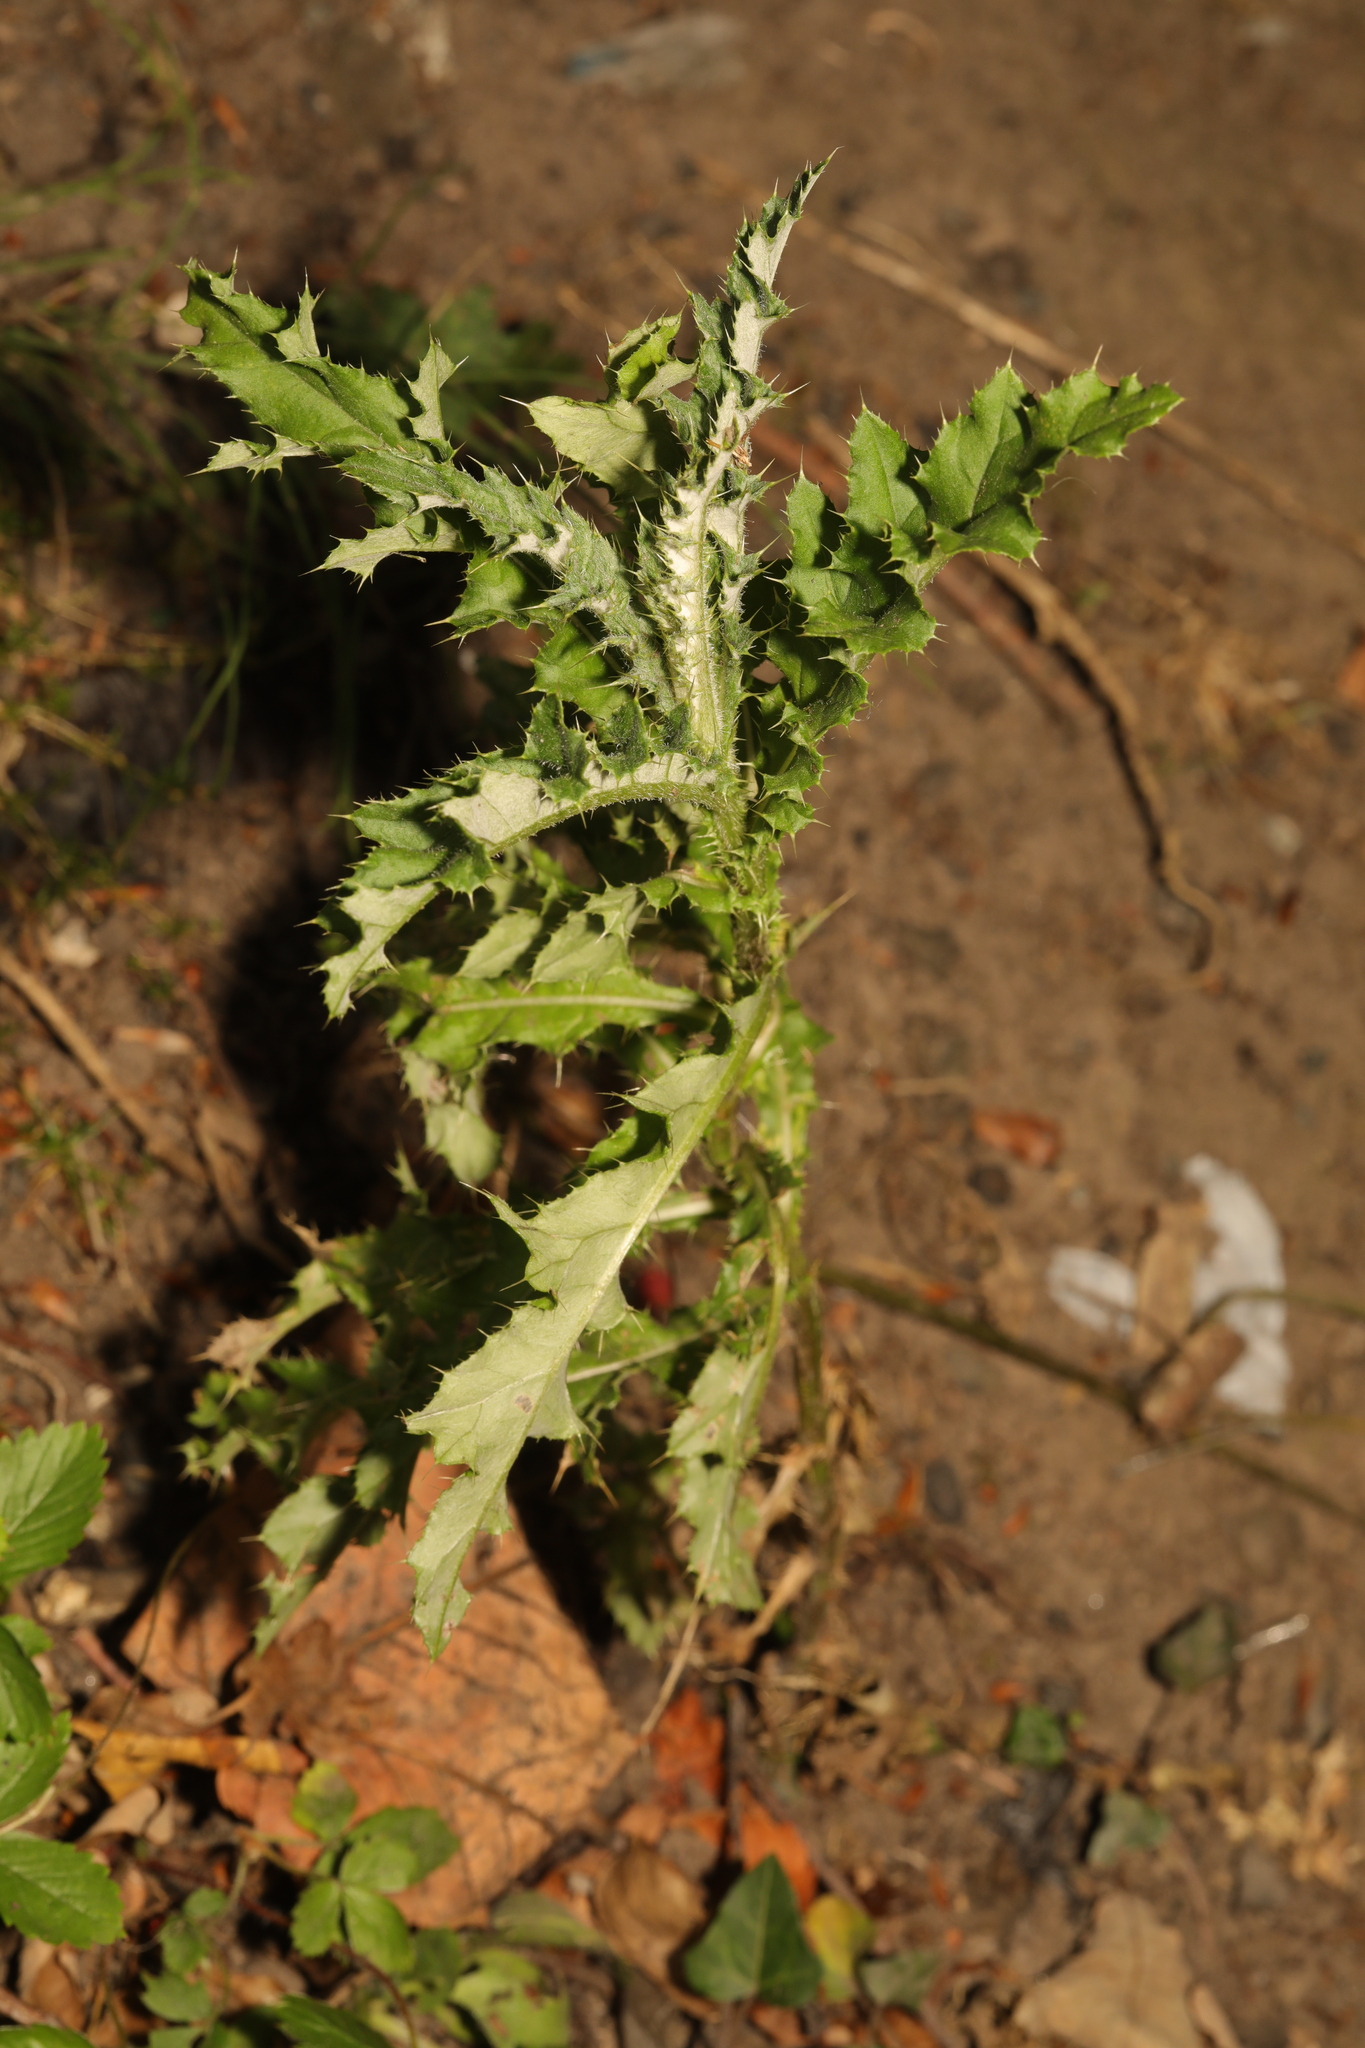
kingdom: Plantae
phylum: Tracheophyta
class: Magnoliopsida
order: Asterales
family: Asteraceae
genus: Cirsium
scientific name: Cirsium arvense
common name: Creeping thistle
